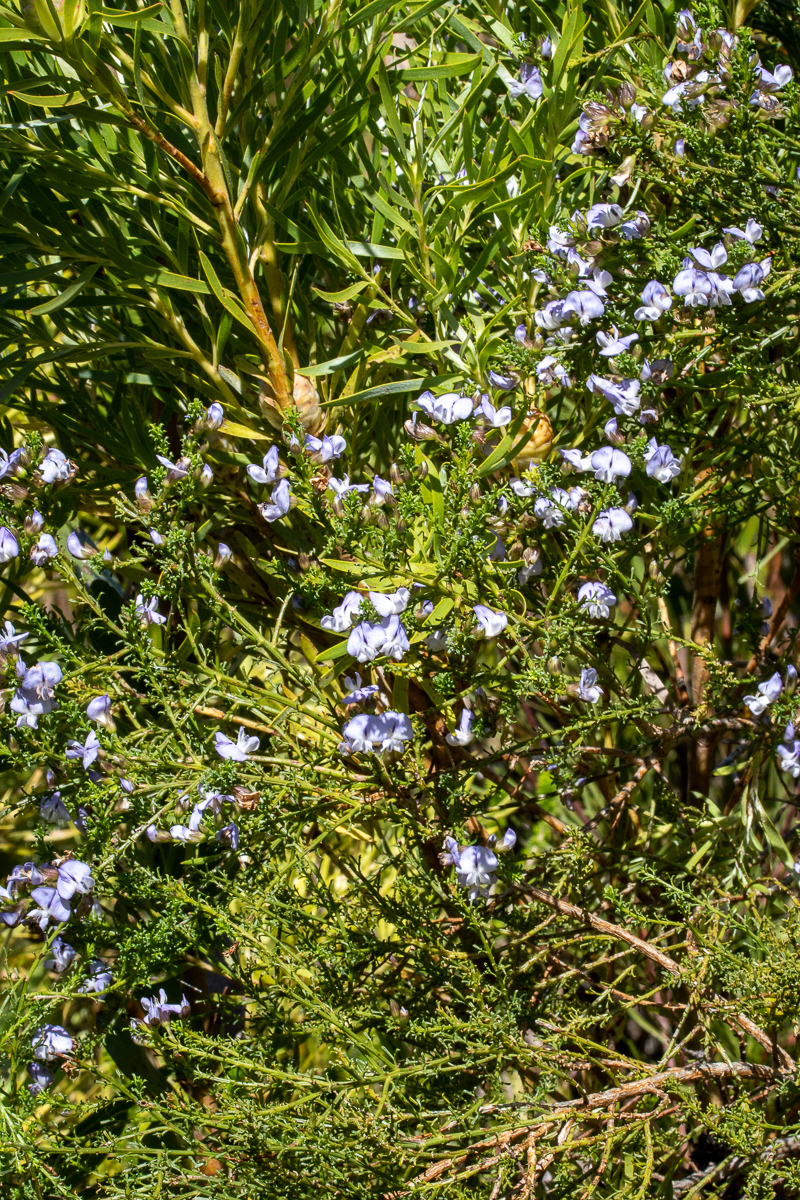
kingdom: Plantae
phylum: Tracheophyta
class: Magnoliopsida
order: Fabales
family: Fabaceae
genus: Psoralea
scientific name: Psoralea aculeata
